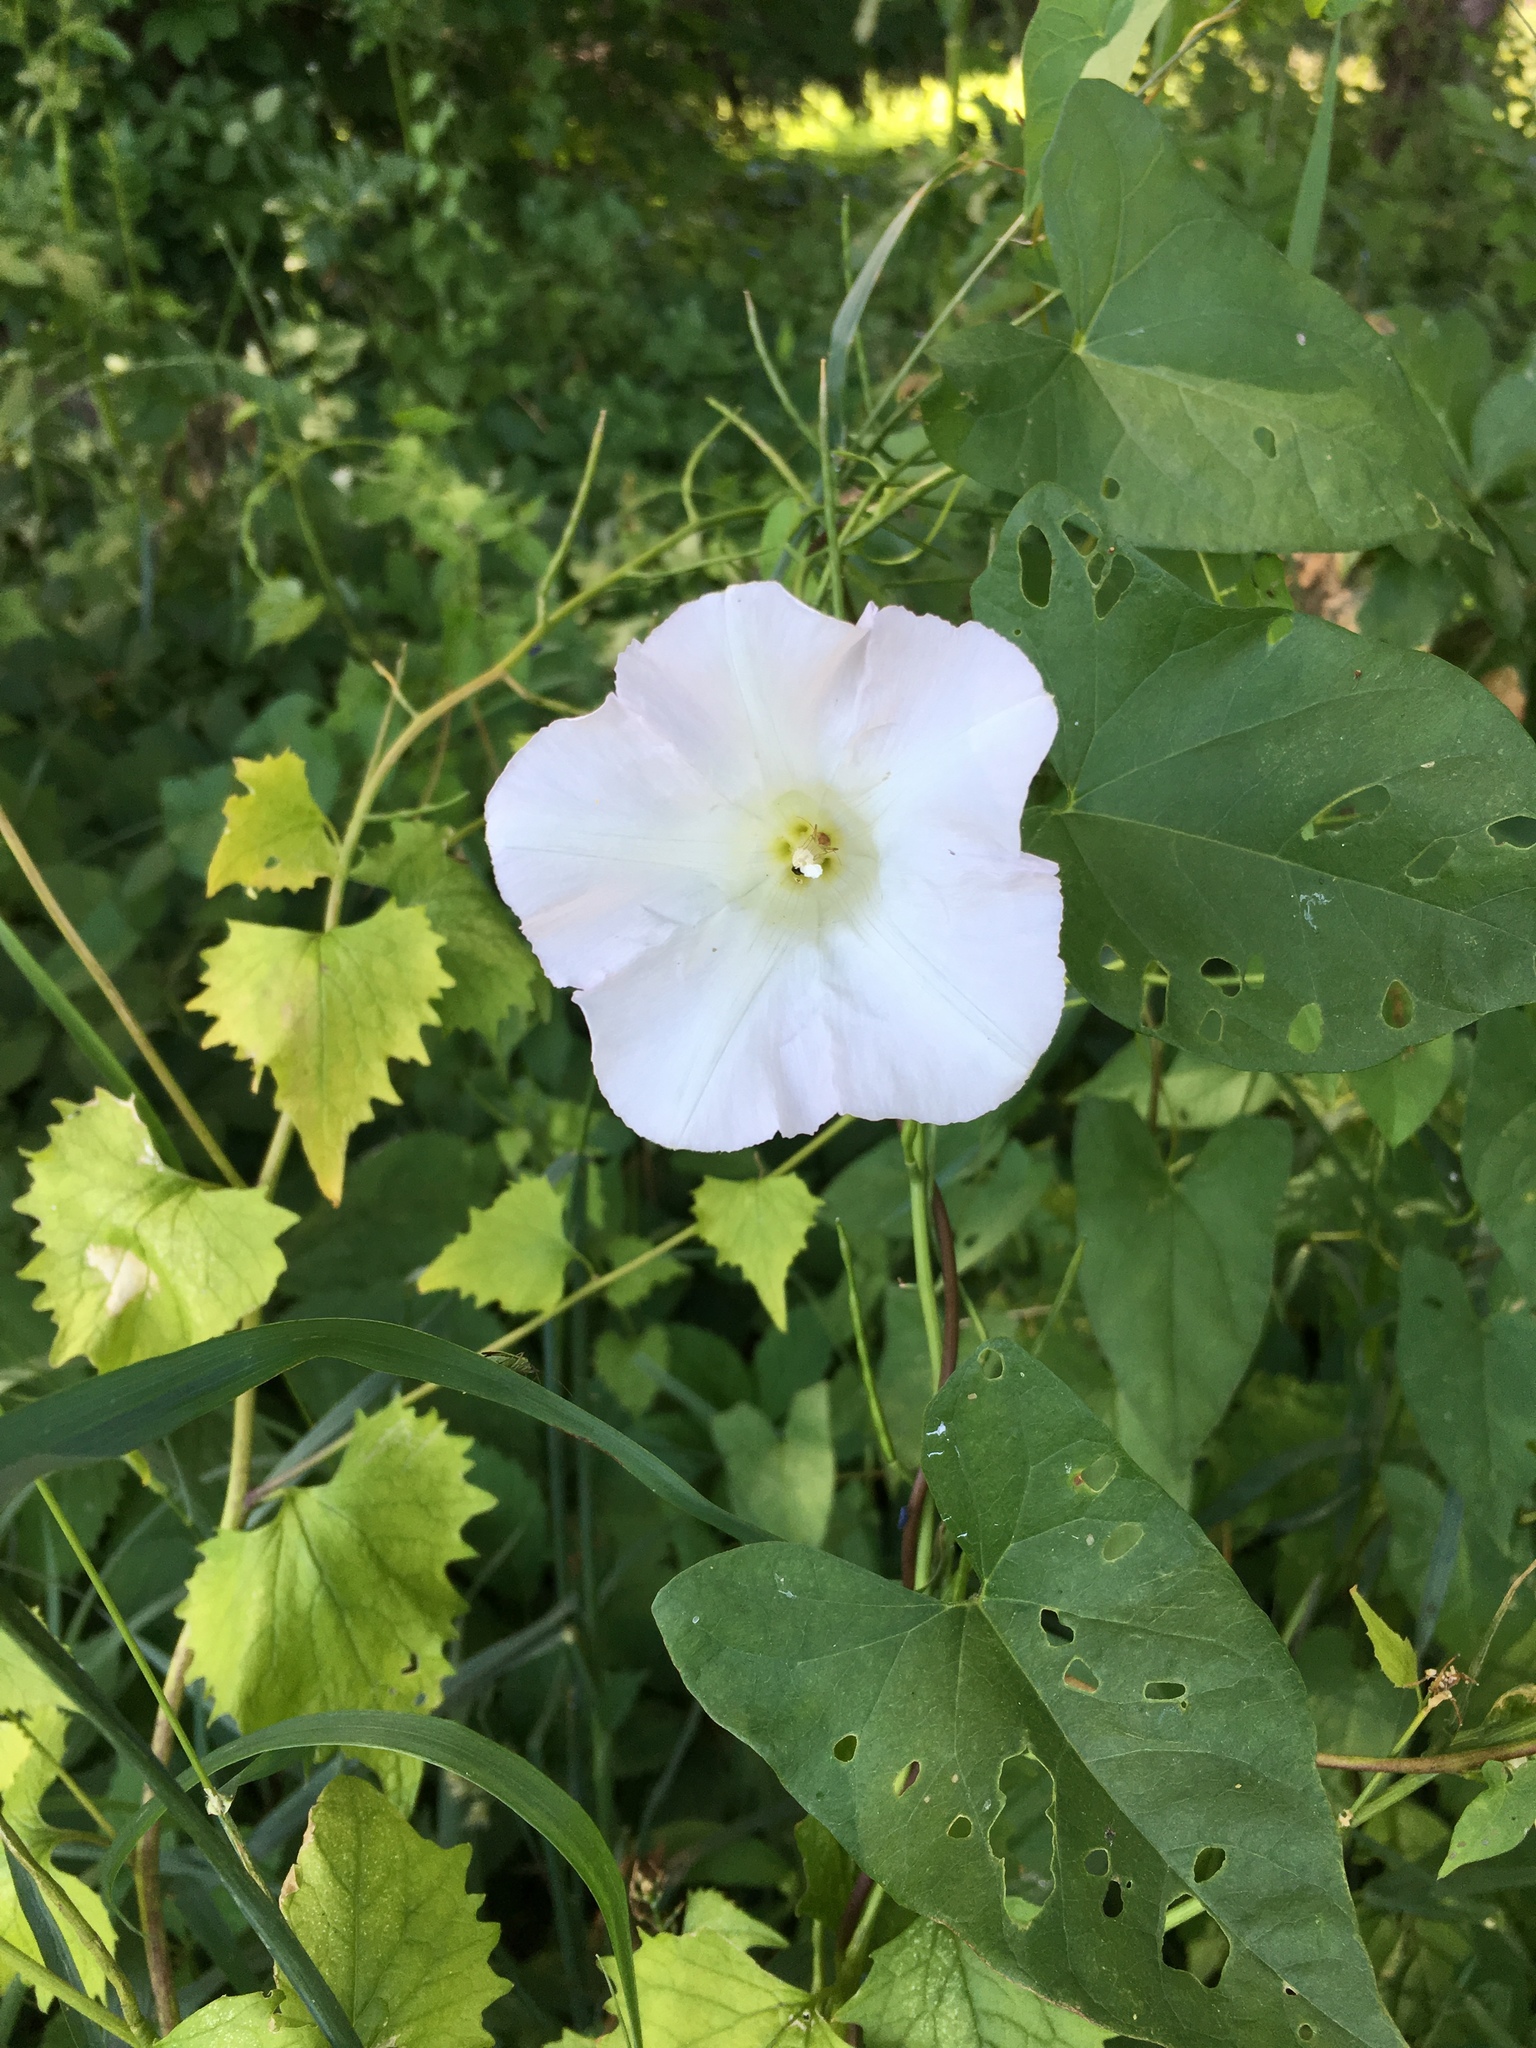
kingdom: Plantae
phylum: Tracheophyta
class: Magnoliopsida
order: Solanales
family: Convolvulaceae
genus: Calystegia
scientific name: Calystegia sepium
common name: Hedge bindweed
